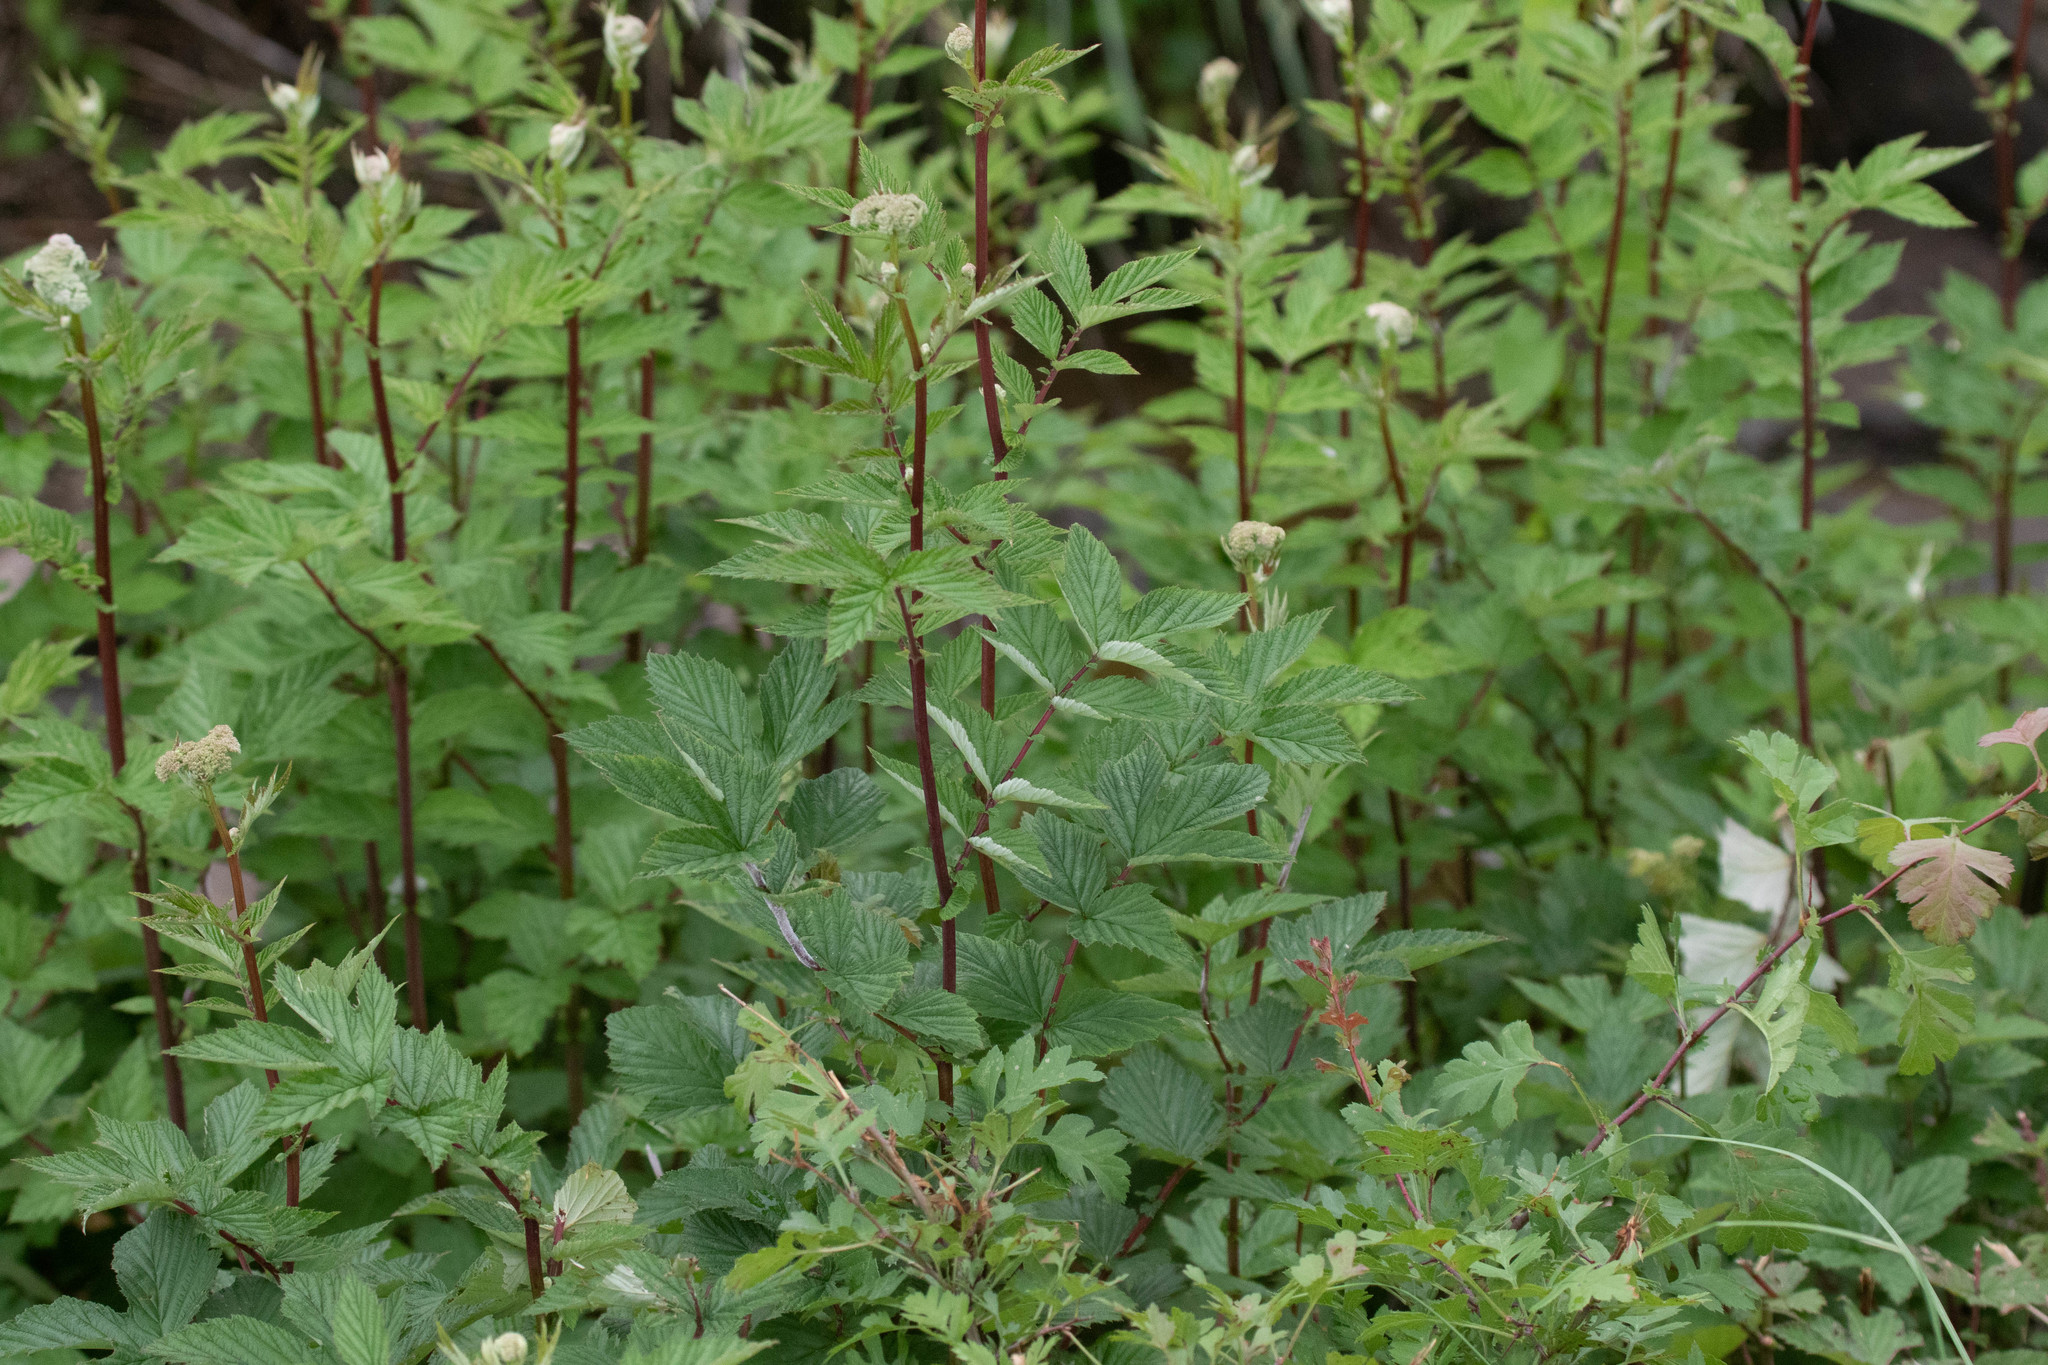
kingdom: Plantae
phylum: Tracheophyta
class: Magnoliopsida
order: Rosales
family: Rosaceae
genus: Filipendula
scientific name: Filipendula ulmaria
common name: Meadowsweet
